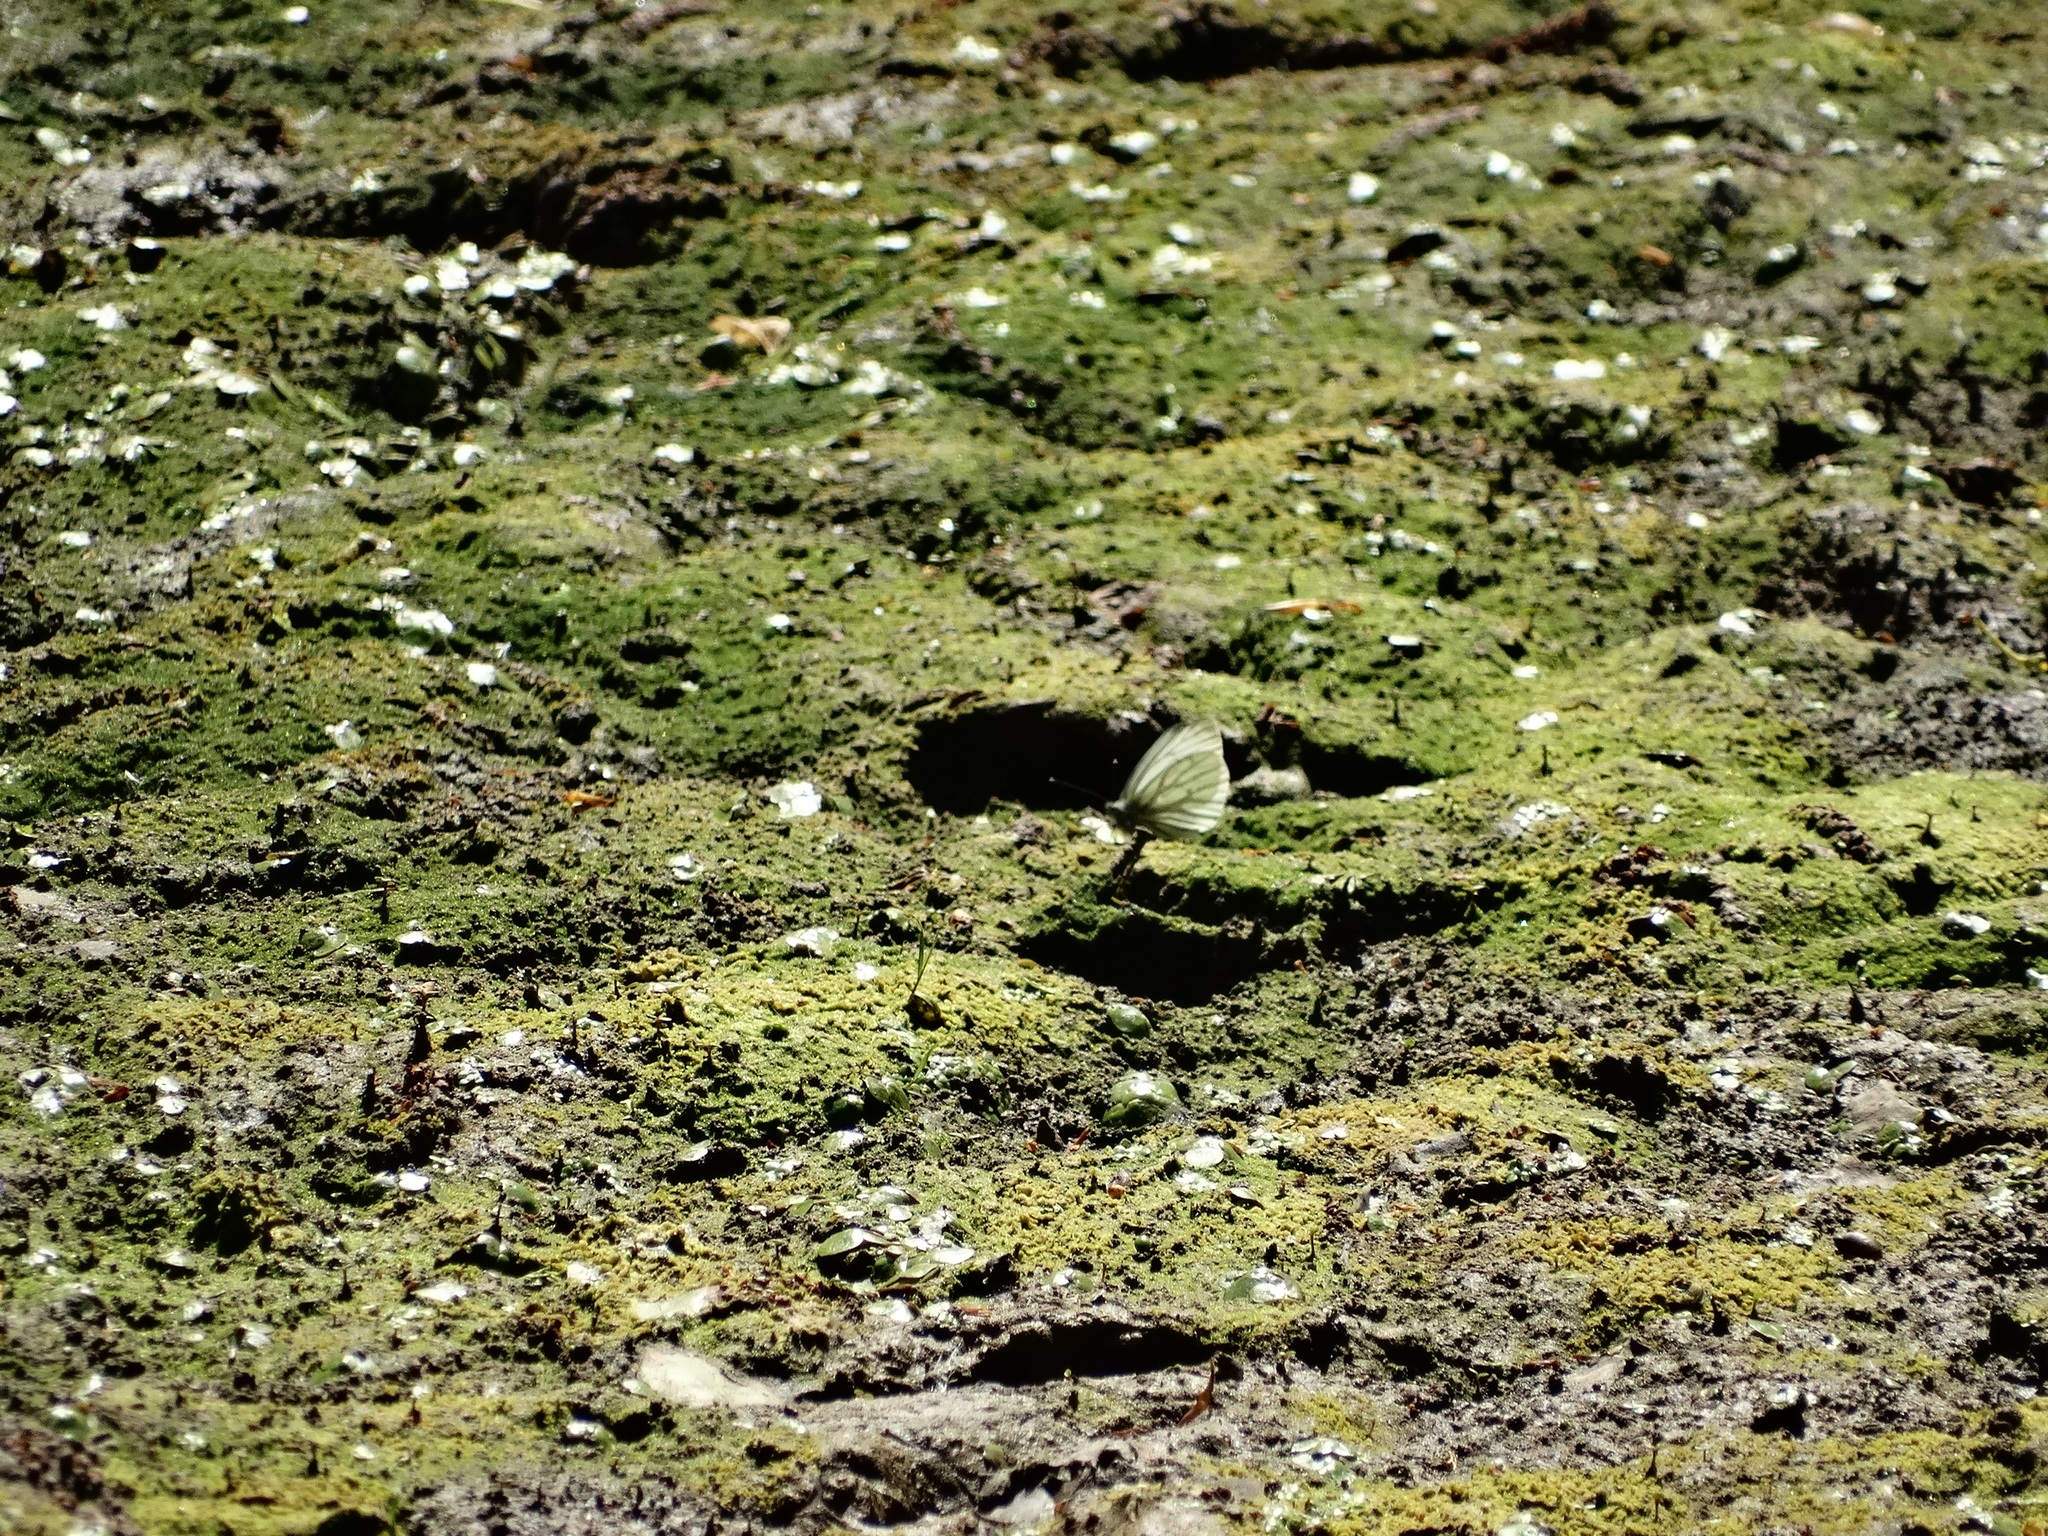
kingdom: Animalia
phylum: Arthropoda
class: Insecta
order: Lepidoptera
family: Pieridae
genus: Pieris
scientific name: Pieris napi
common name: Green-veined white
